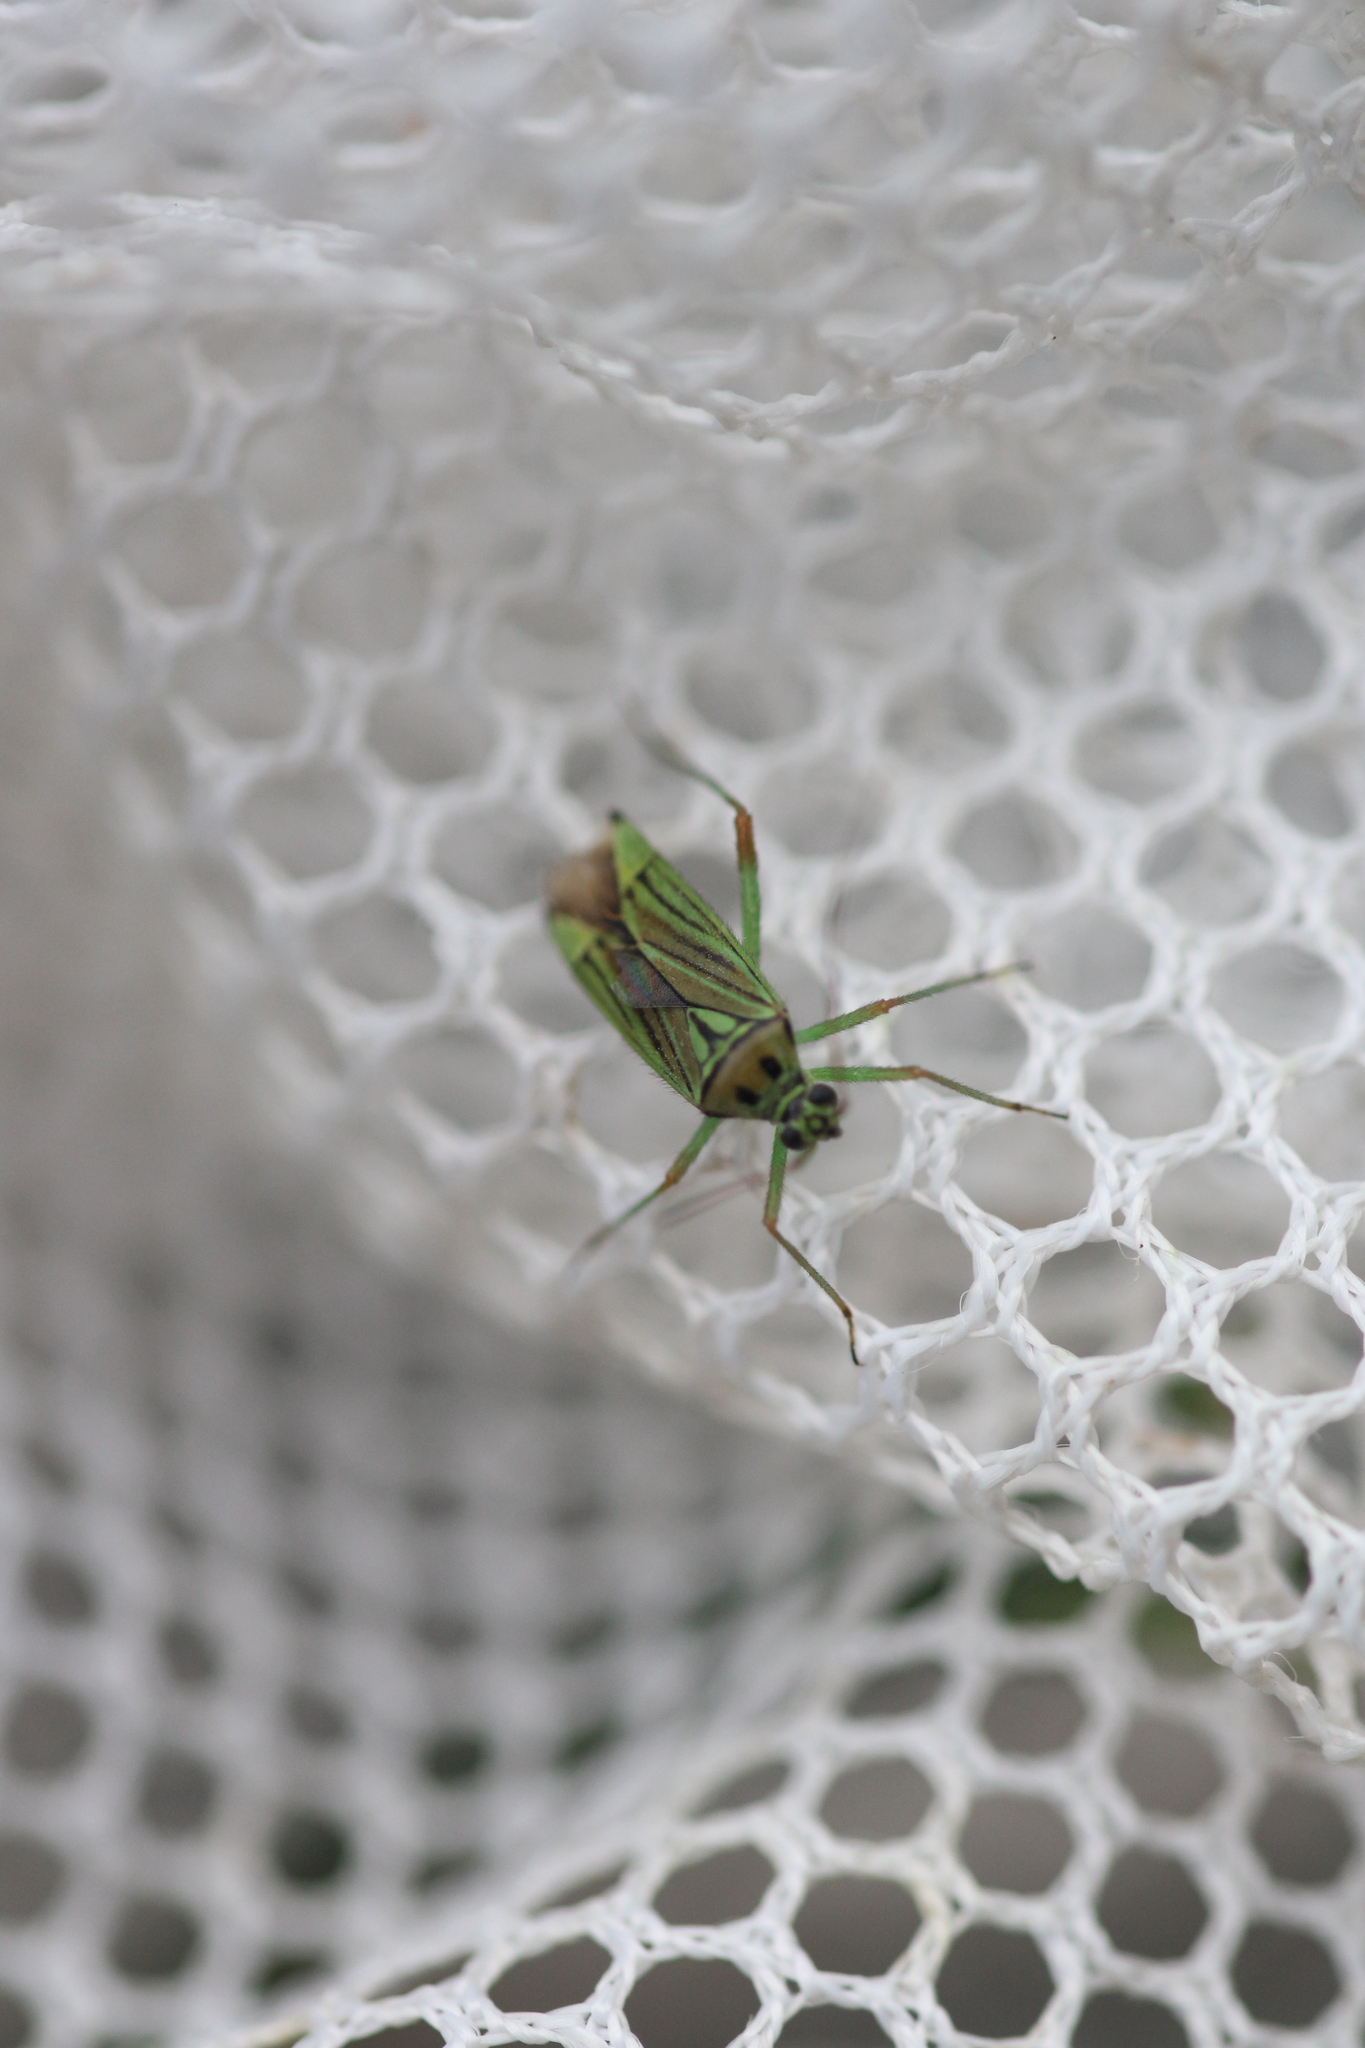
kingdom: Animalia
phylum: Arthropoda
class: Insecta
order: Hemiptera
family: Miridae
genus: Mermitelocerus
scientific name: Mermitelocerus schmidtii
